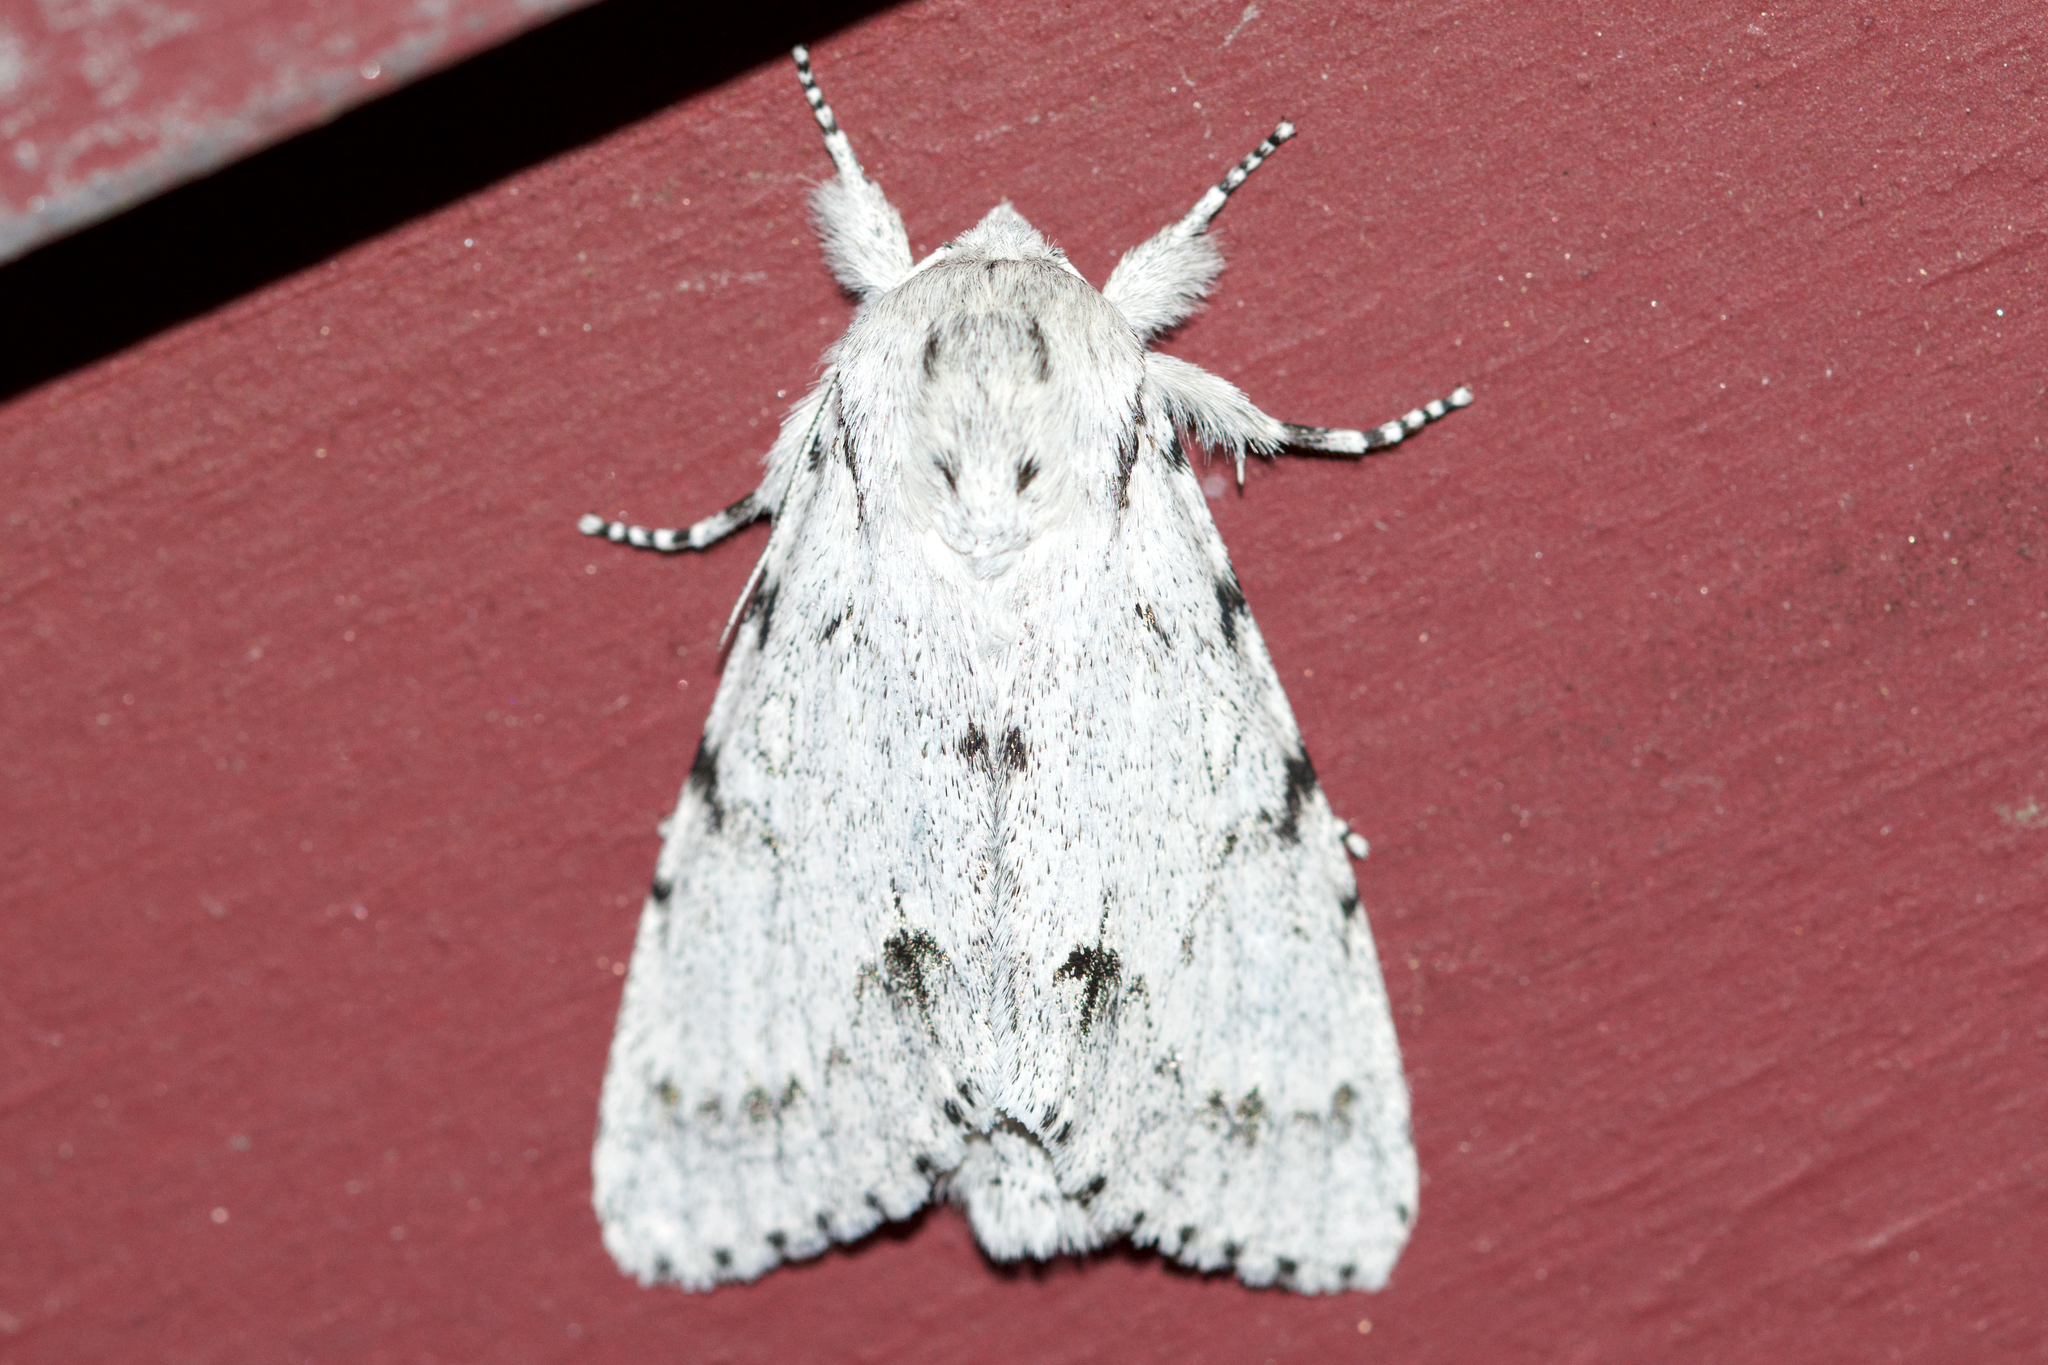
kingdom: Animalia
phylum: Arthropoda
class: Insecta
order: Lepidoptera
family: Noctuidae
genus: Acronicta
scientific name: Acronicta lepusculina
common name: Cottonwood dagger
